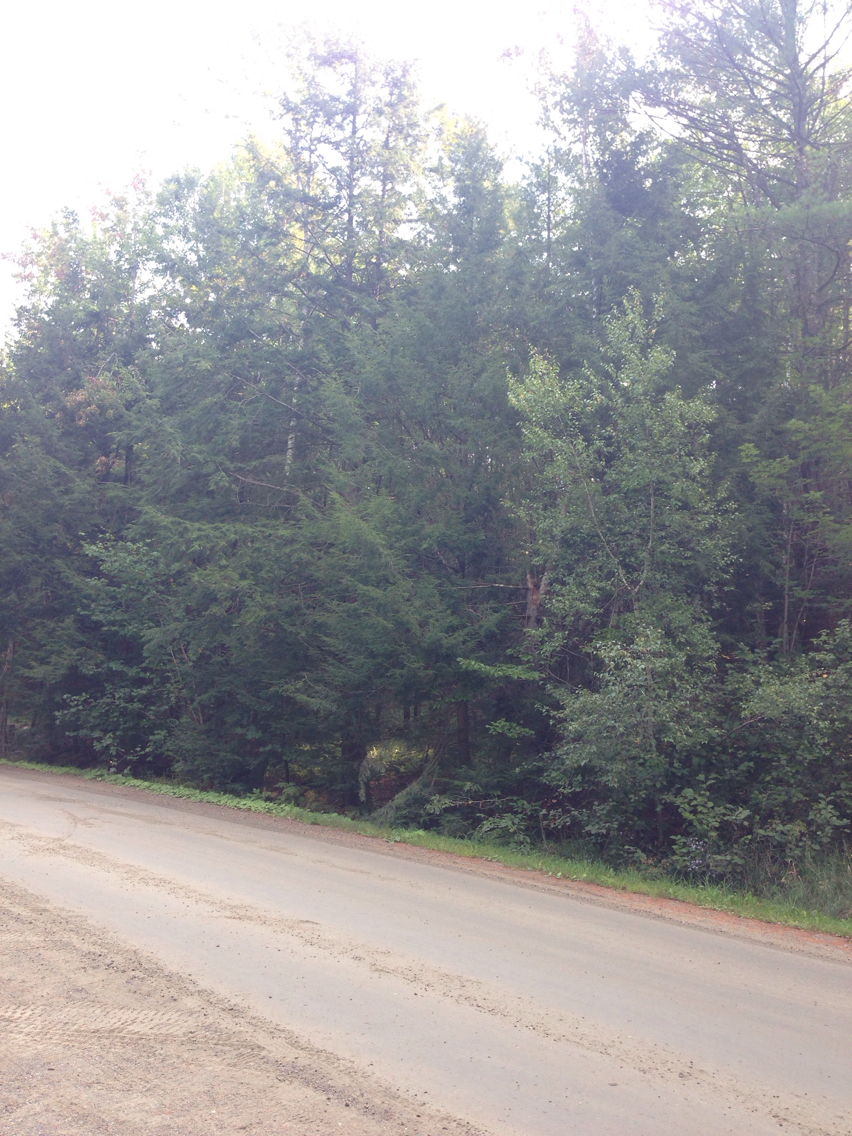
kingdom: Plantae
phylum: Tracheophyta
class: Pinopsida
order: Pinales
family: Pinaceae
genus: Tsuga
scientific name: Tsuga canadensis
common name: Eastern hemlock
